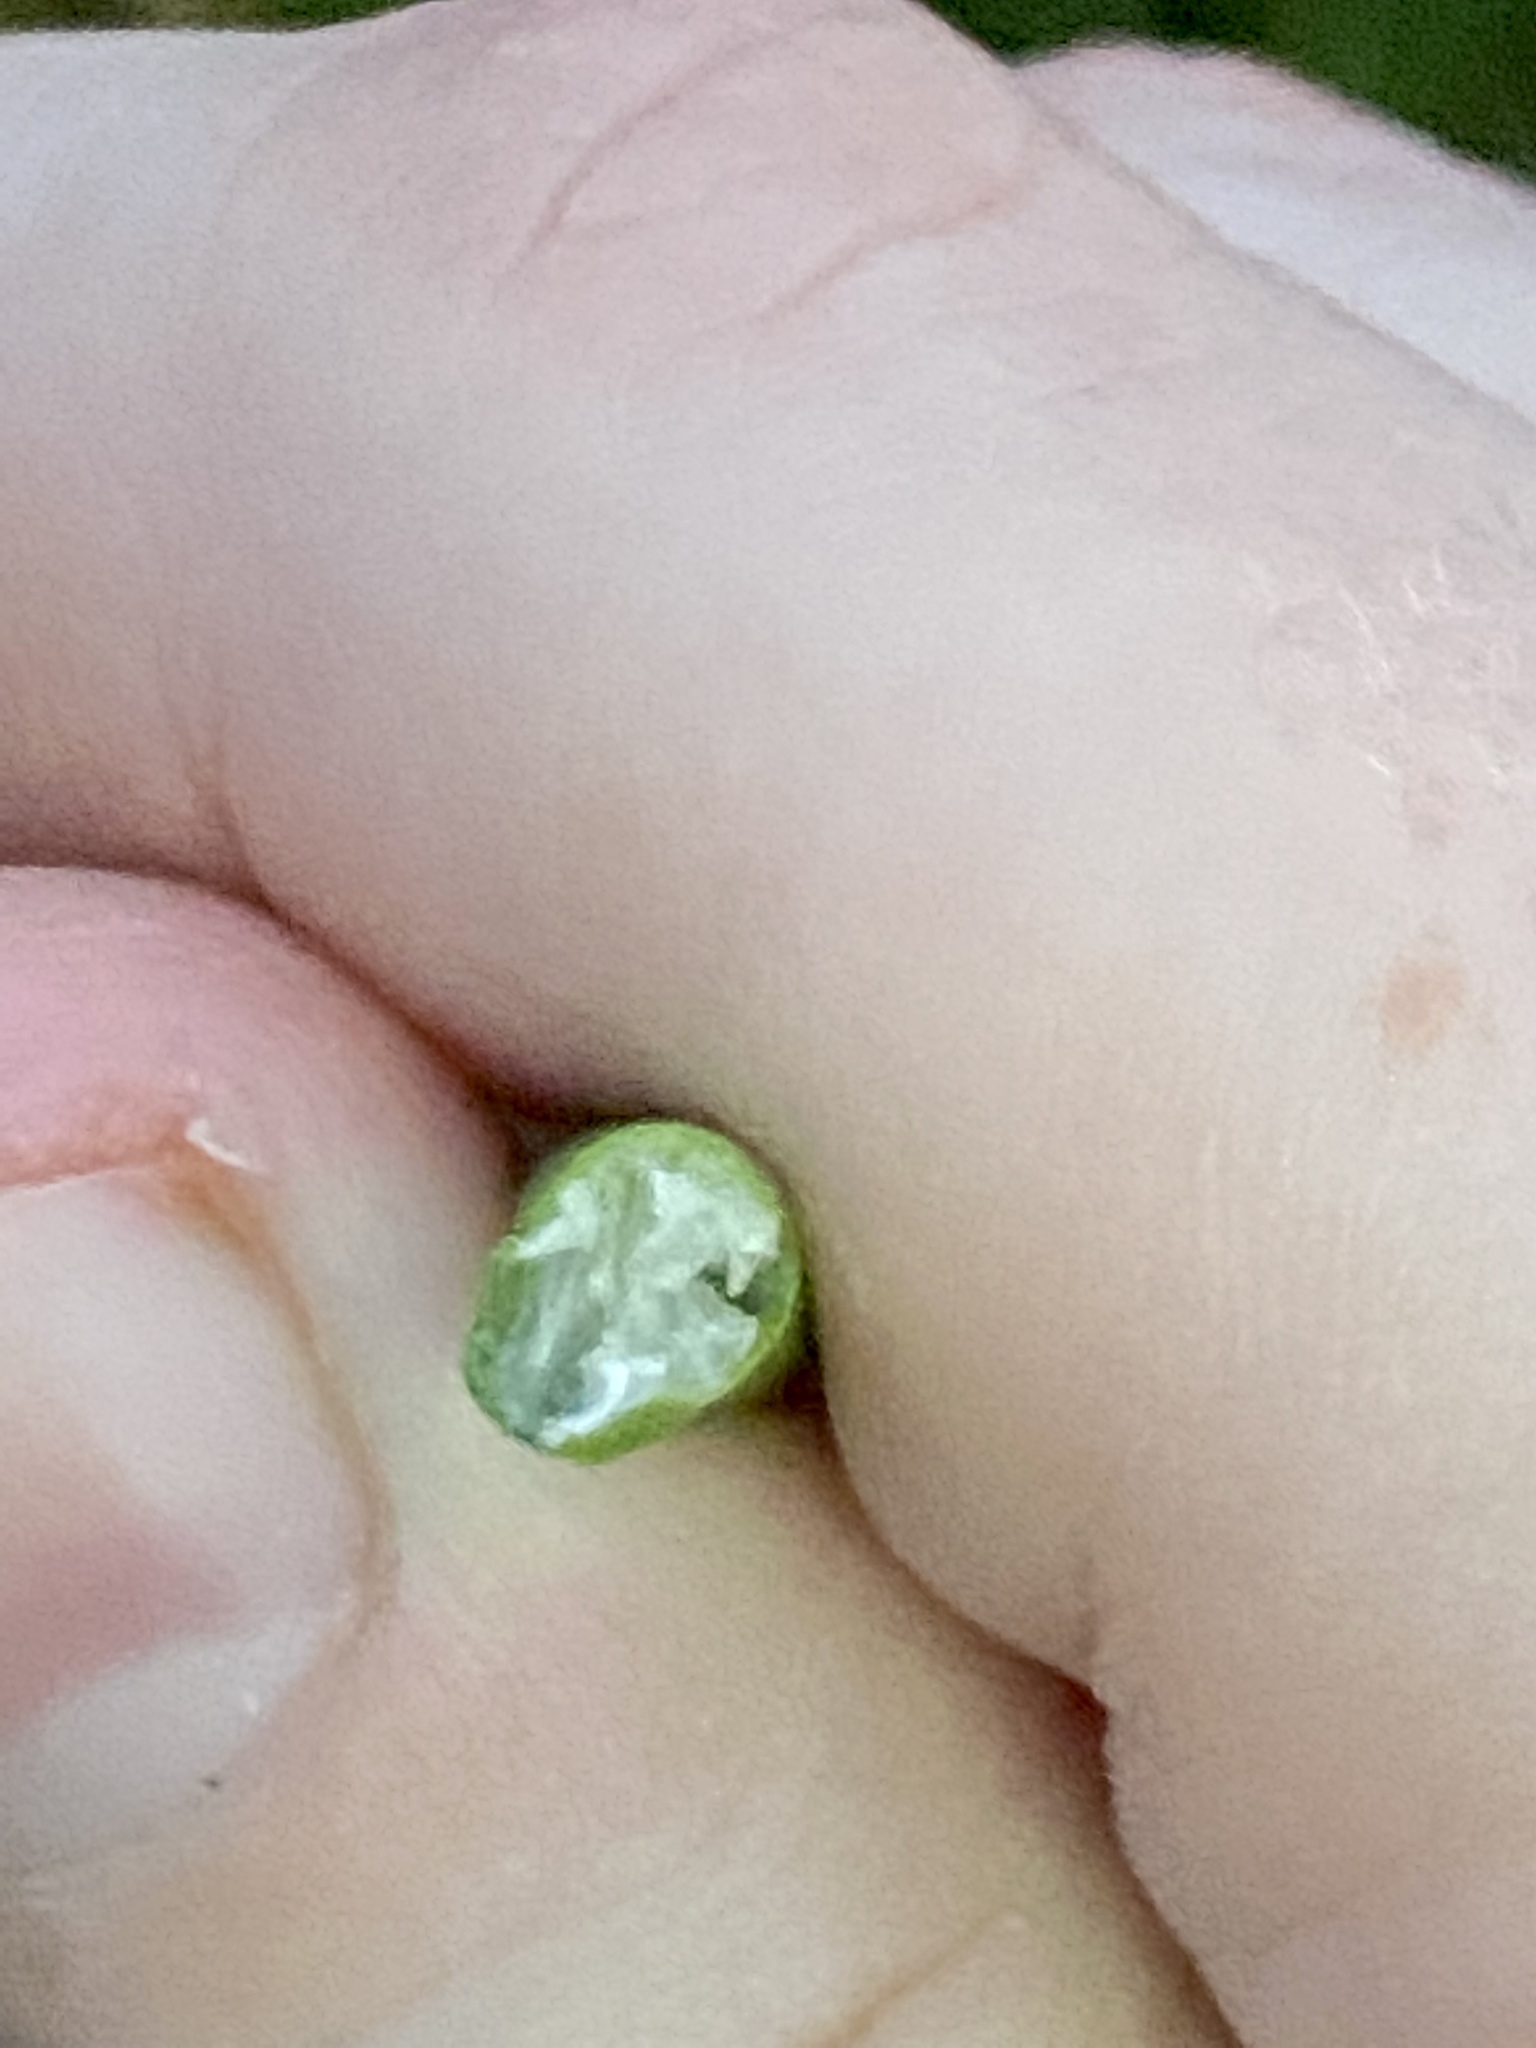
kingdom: Plantae
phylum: Tracheophyta
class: Liliopsida
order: Poales
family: Cyperaceae
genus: Schoenoplectus
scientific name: Schoenoplectus tabernaemontani
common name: Grey club-rush
